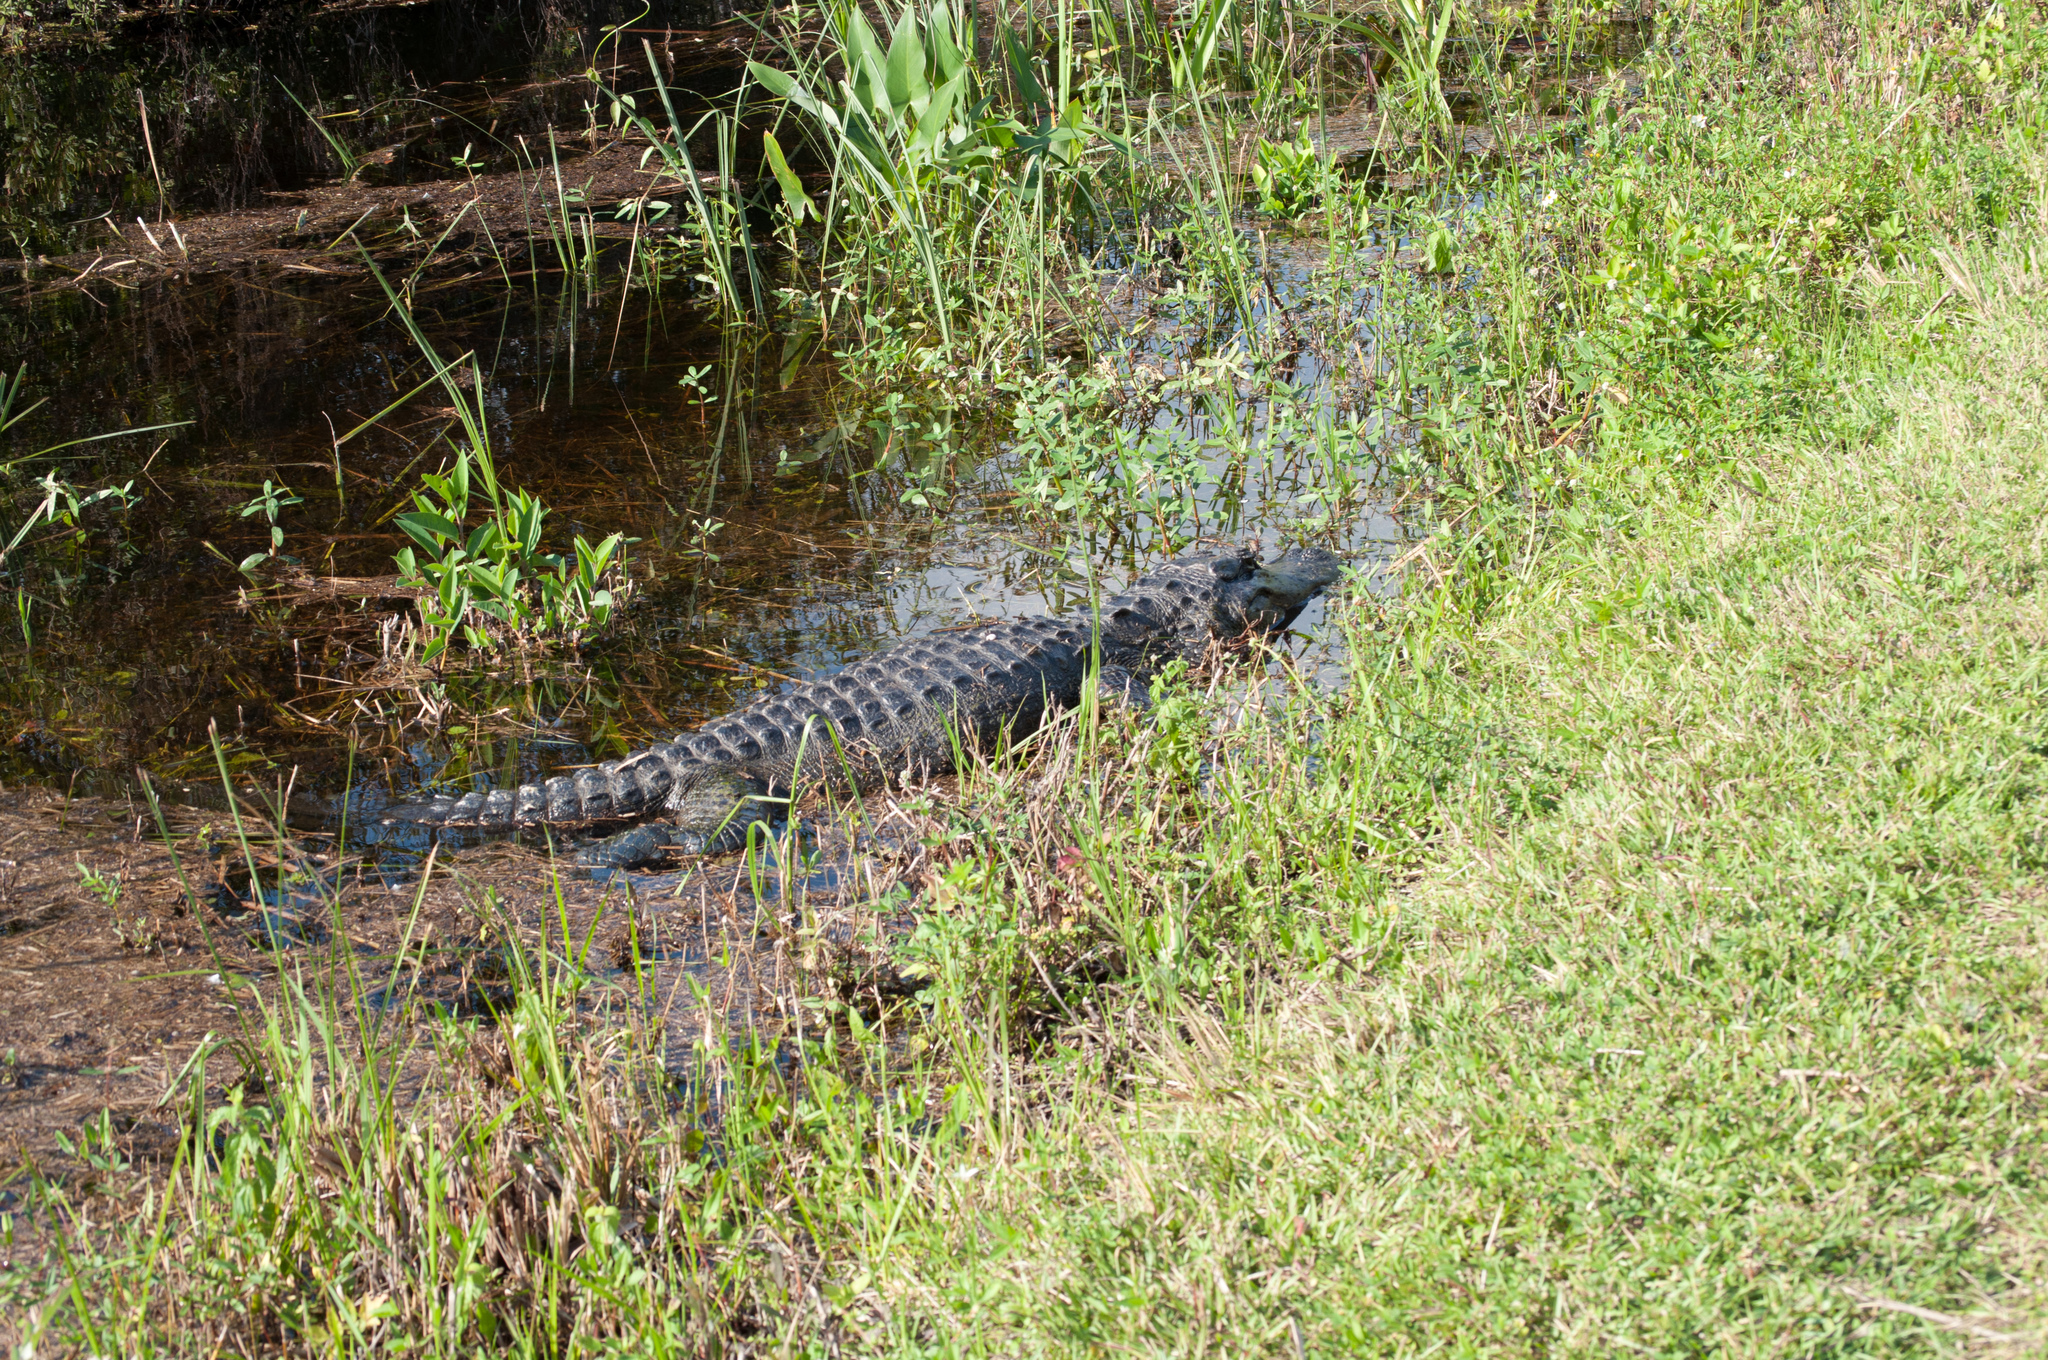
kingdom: Animalia
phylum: Chordata
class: Crocodylia
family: Alligatoridae
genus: Alligator
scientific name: Alligator mississippiensis
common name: American alligator
